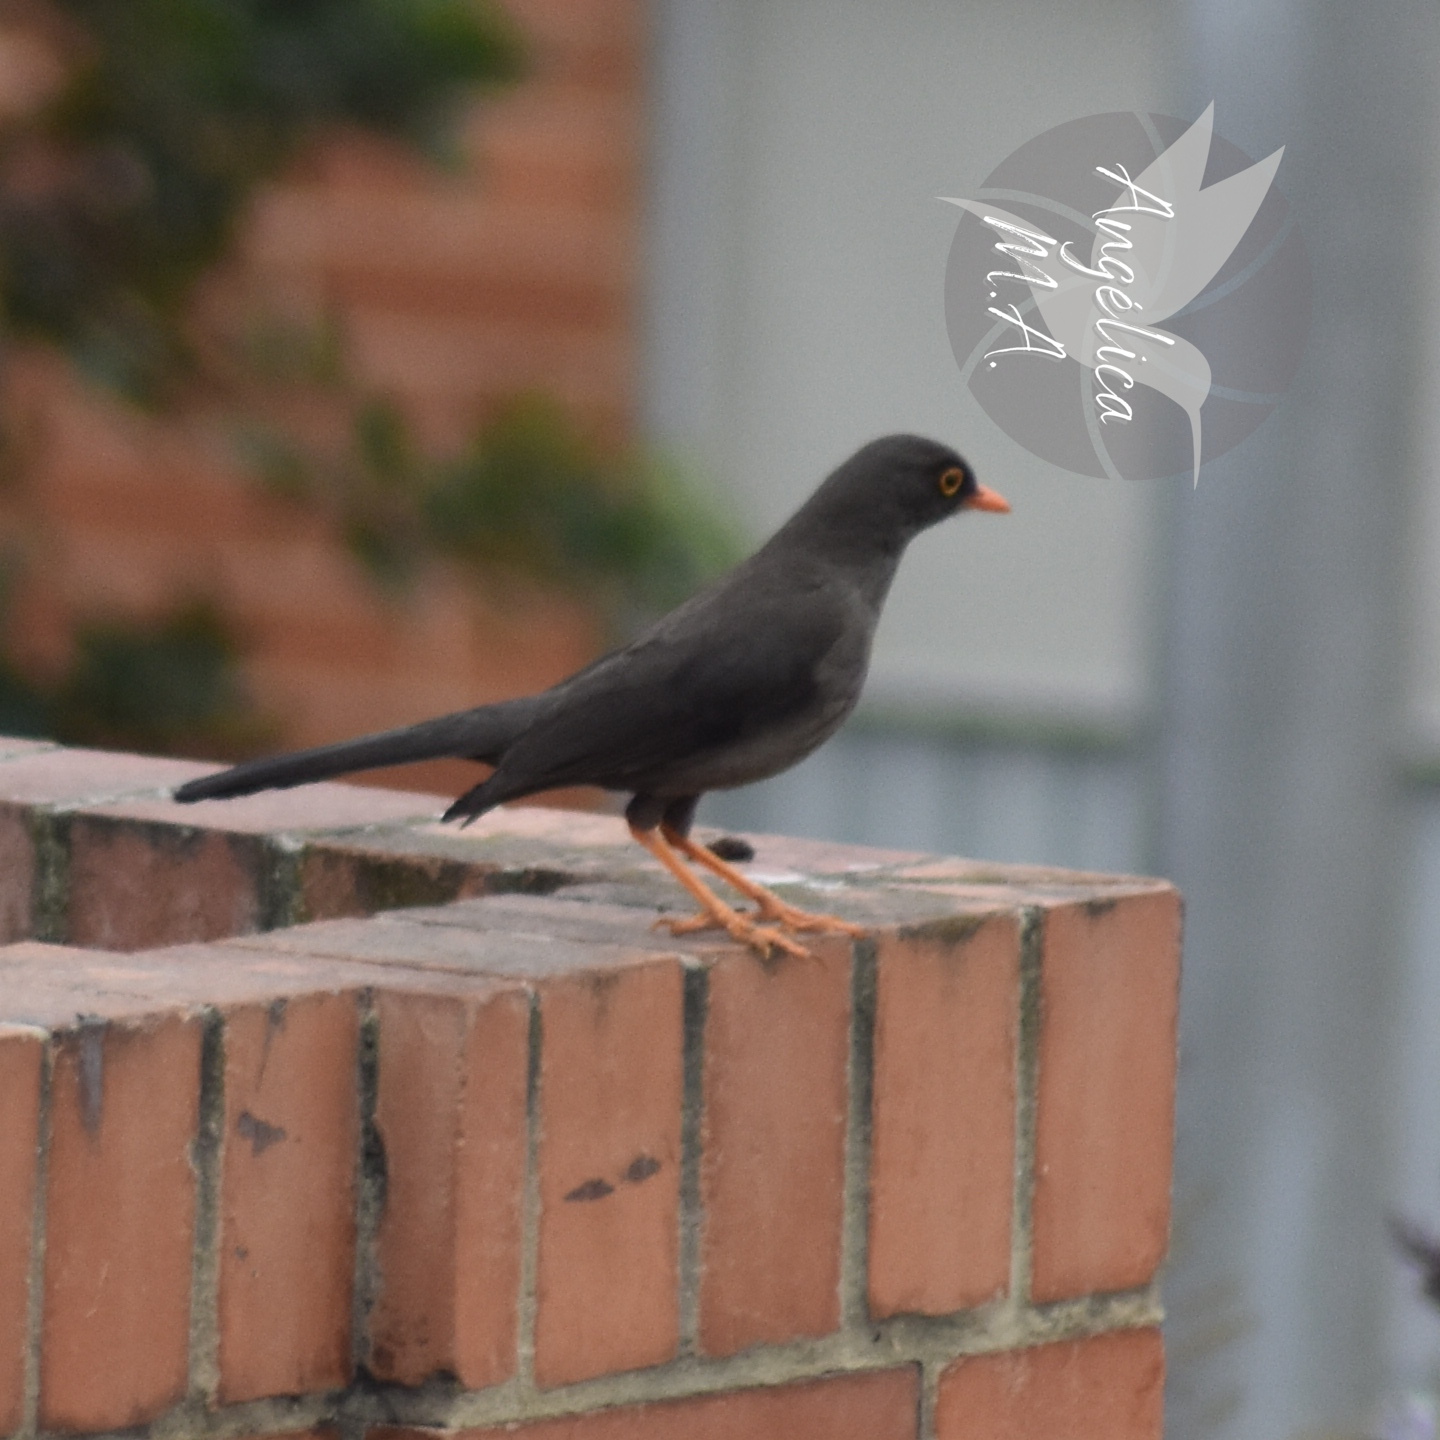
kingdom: Animalia
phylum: Chordata
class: Aves
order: Passeriformes
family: Turdidae
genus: Turdus
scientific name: Turdus fuscater
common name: Great thrush
